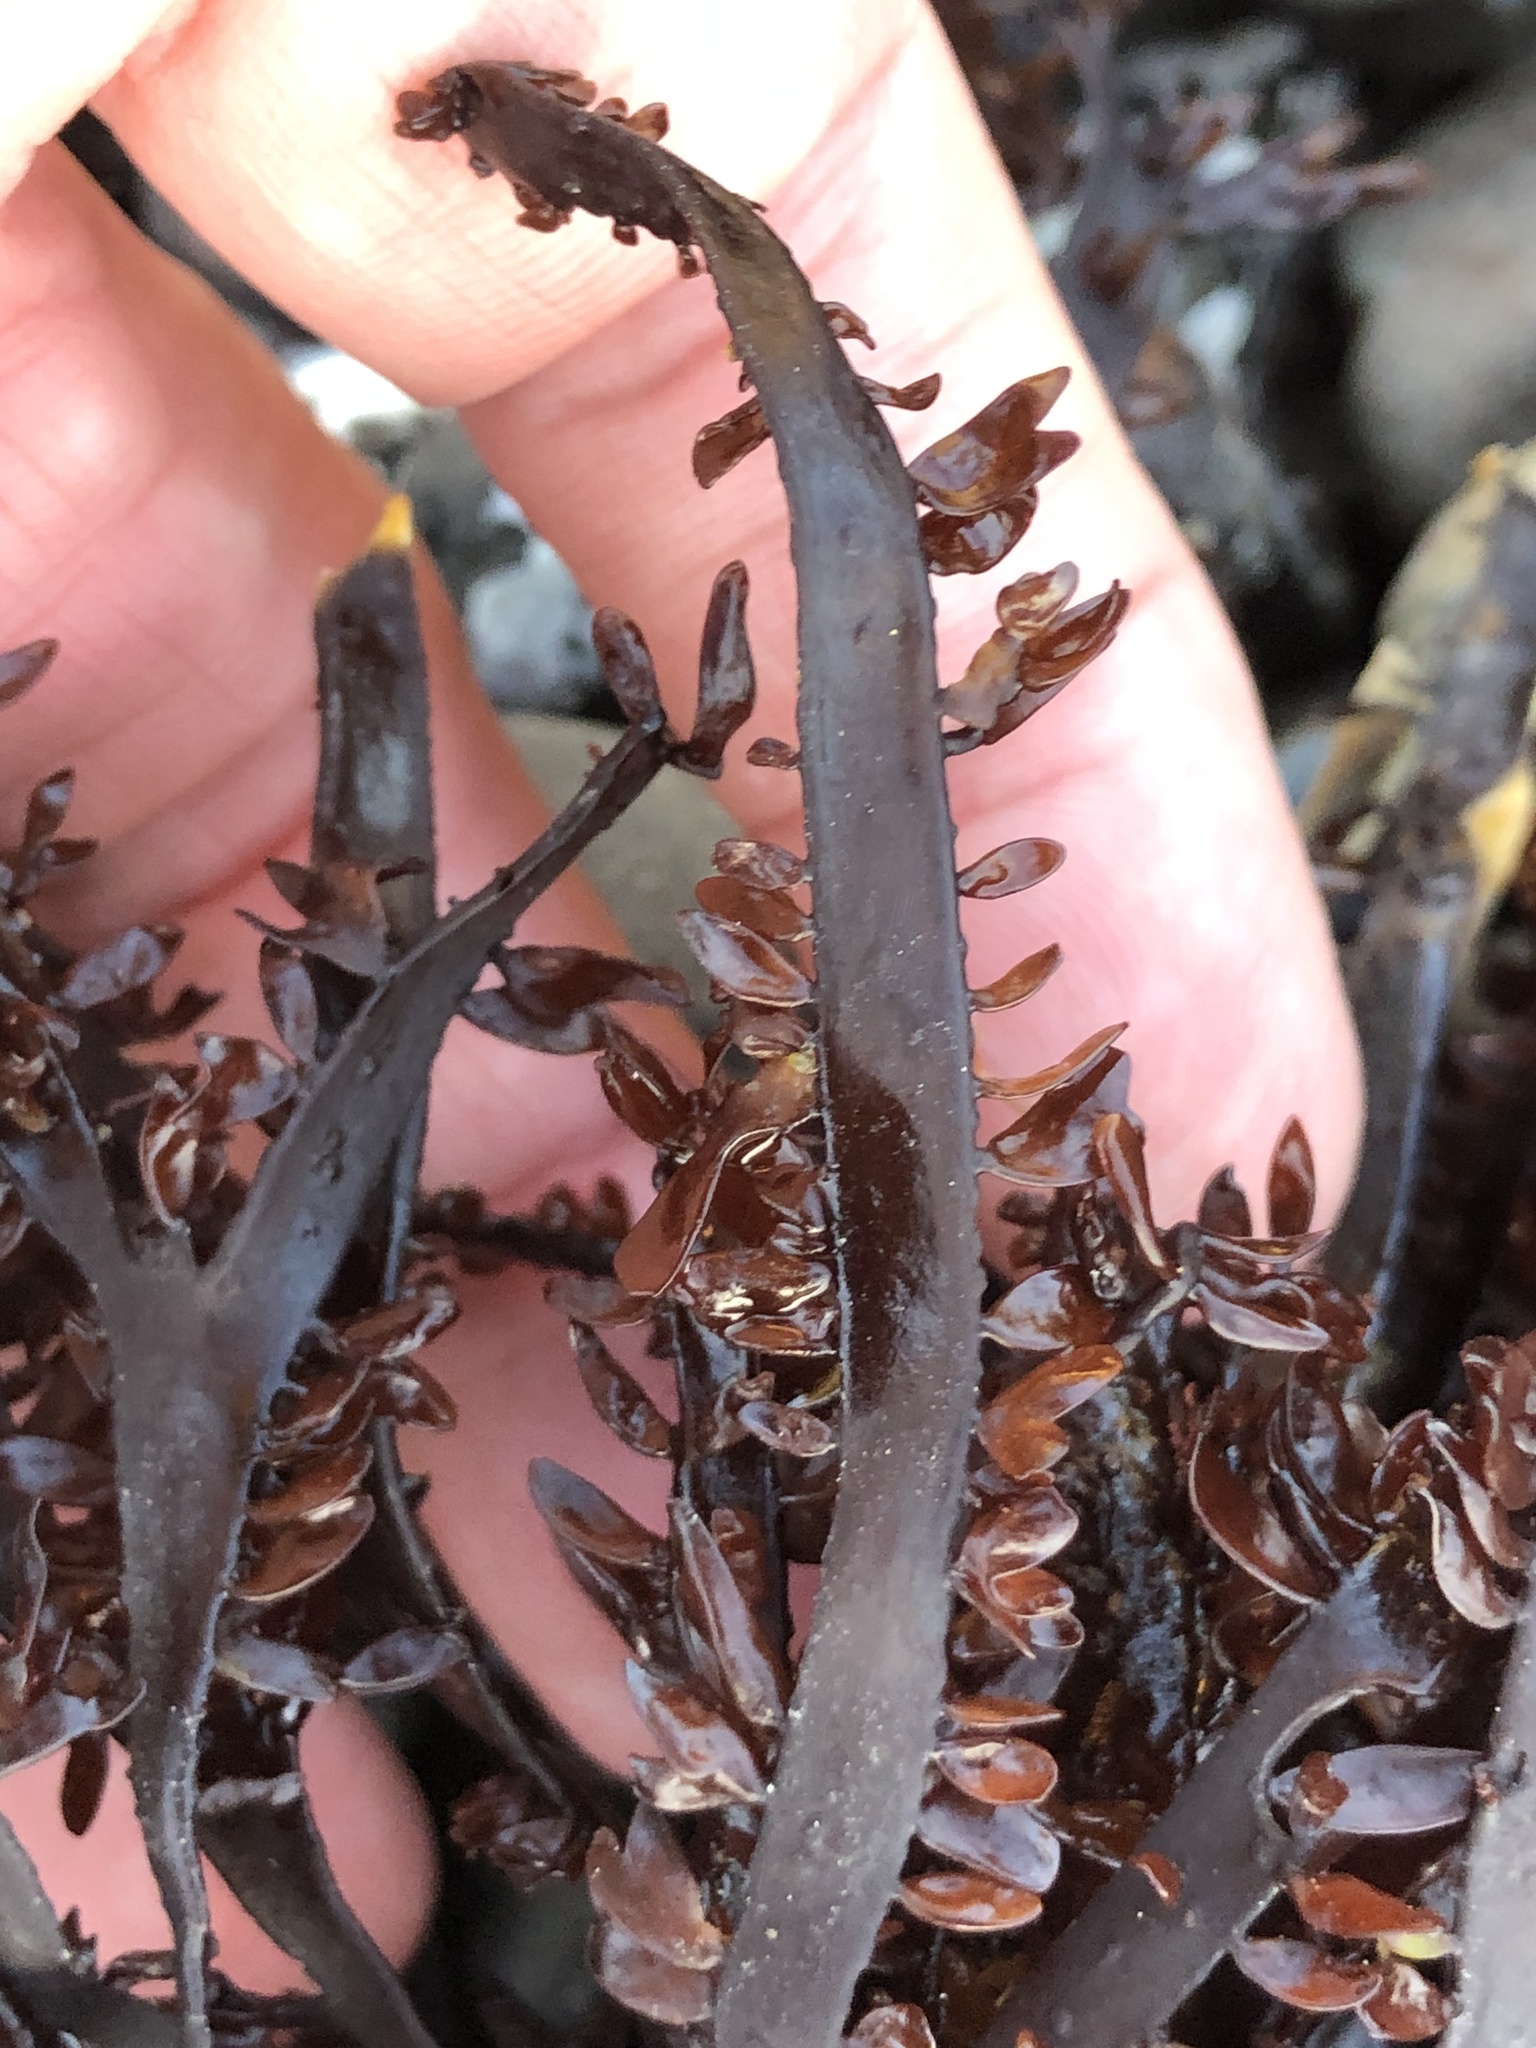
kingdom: Plantae
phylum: Rhodophyta
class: Florideophyceae
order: Halymeniales
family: Halymeniaceae
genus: Grateloupia
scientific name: Grateloupia Prionitis lanceolata
